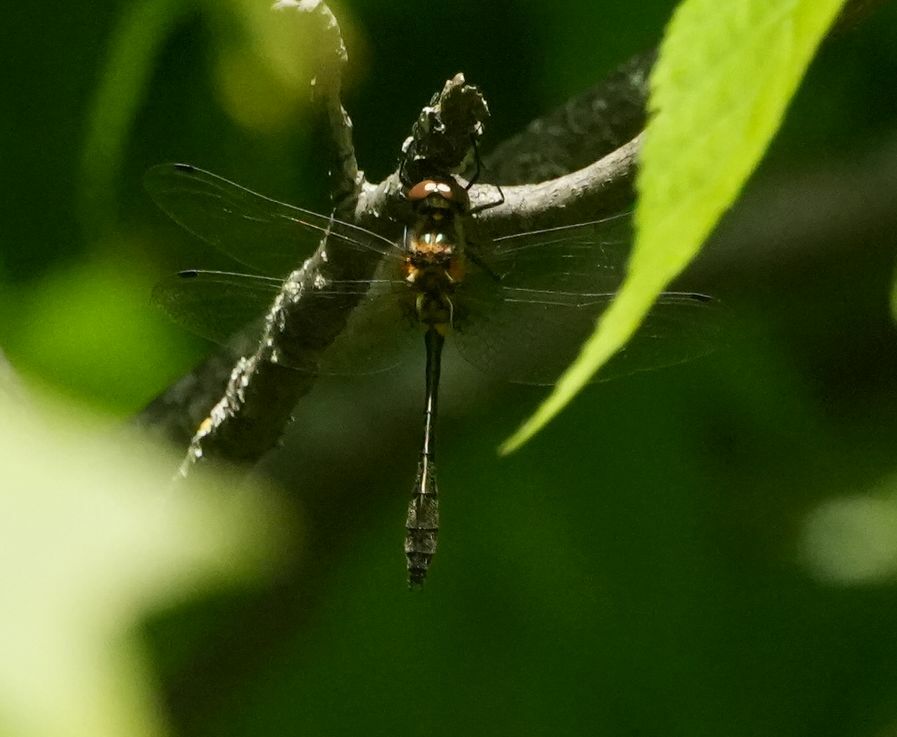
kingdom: Animalia
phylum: Arthropoda
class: Insecta
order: Odonata
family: Corduliidae
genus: Dorocordulia
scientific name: Dorocordulia libera
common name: Racket-tailed emerald
